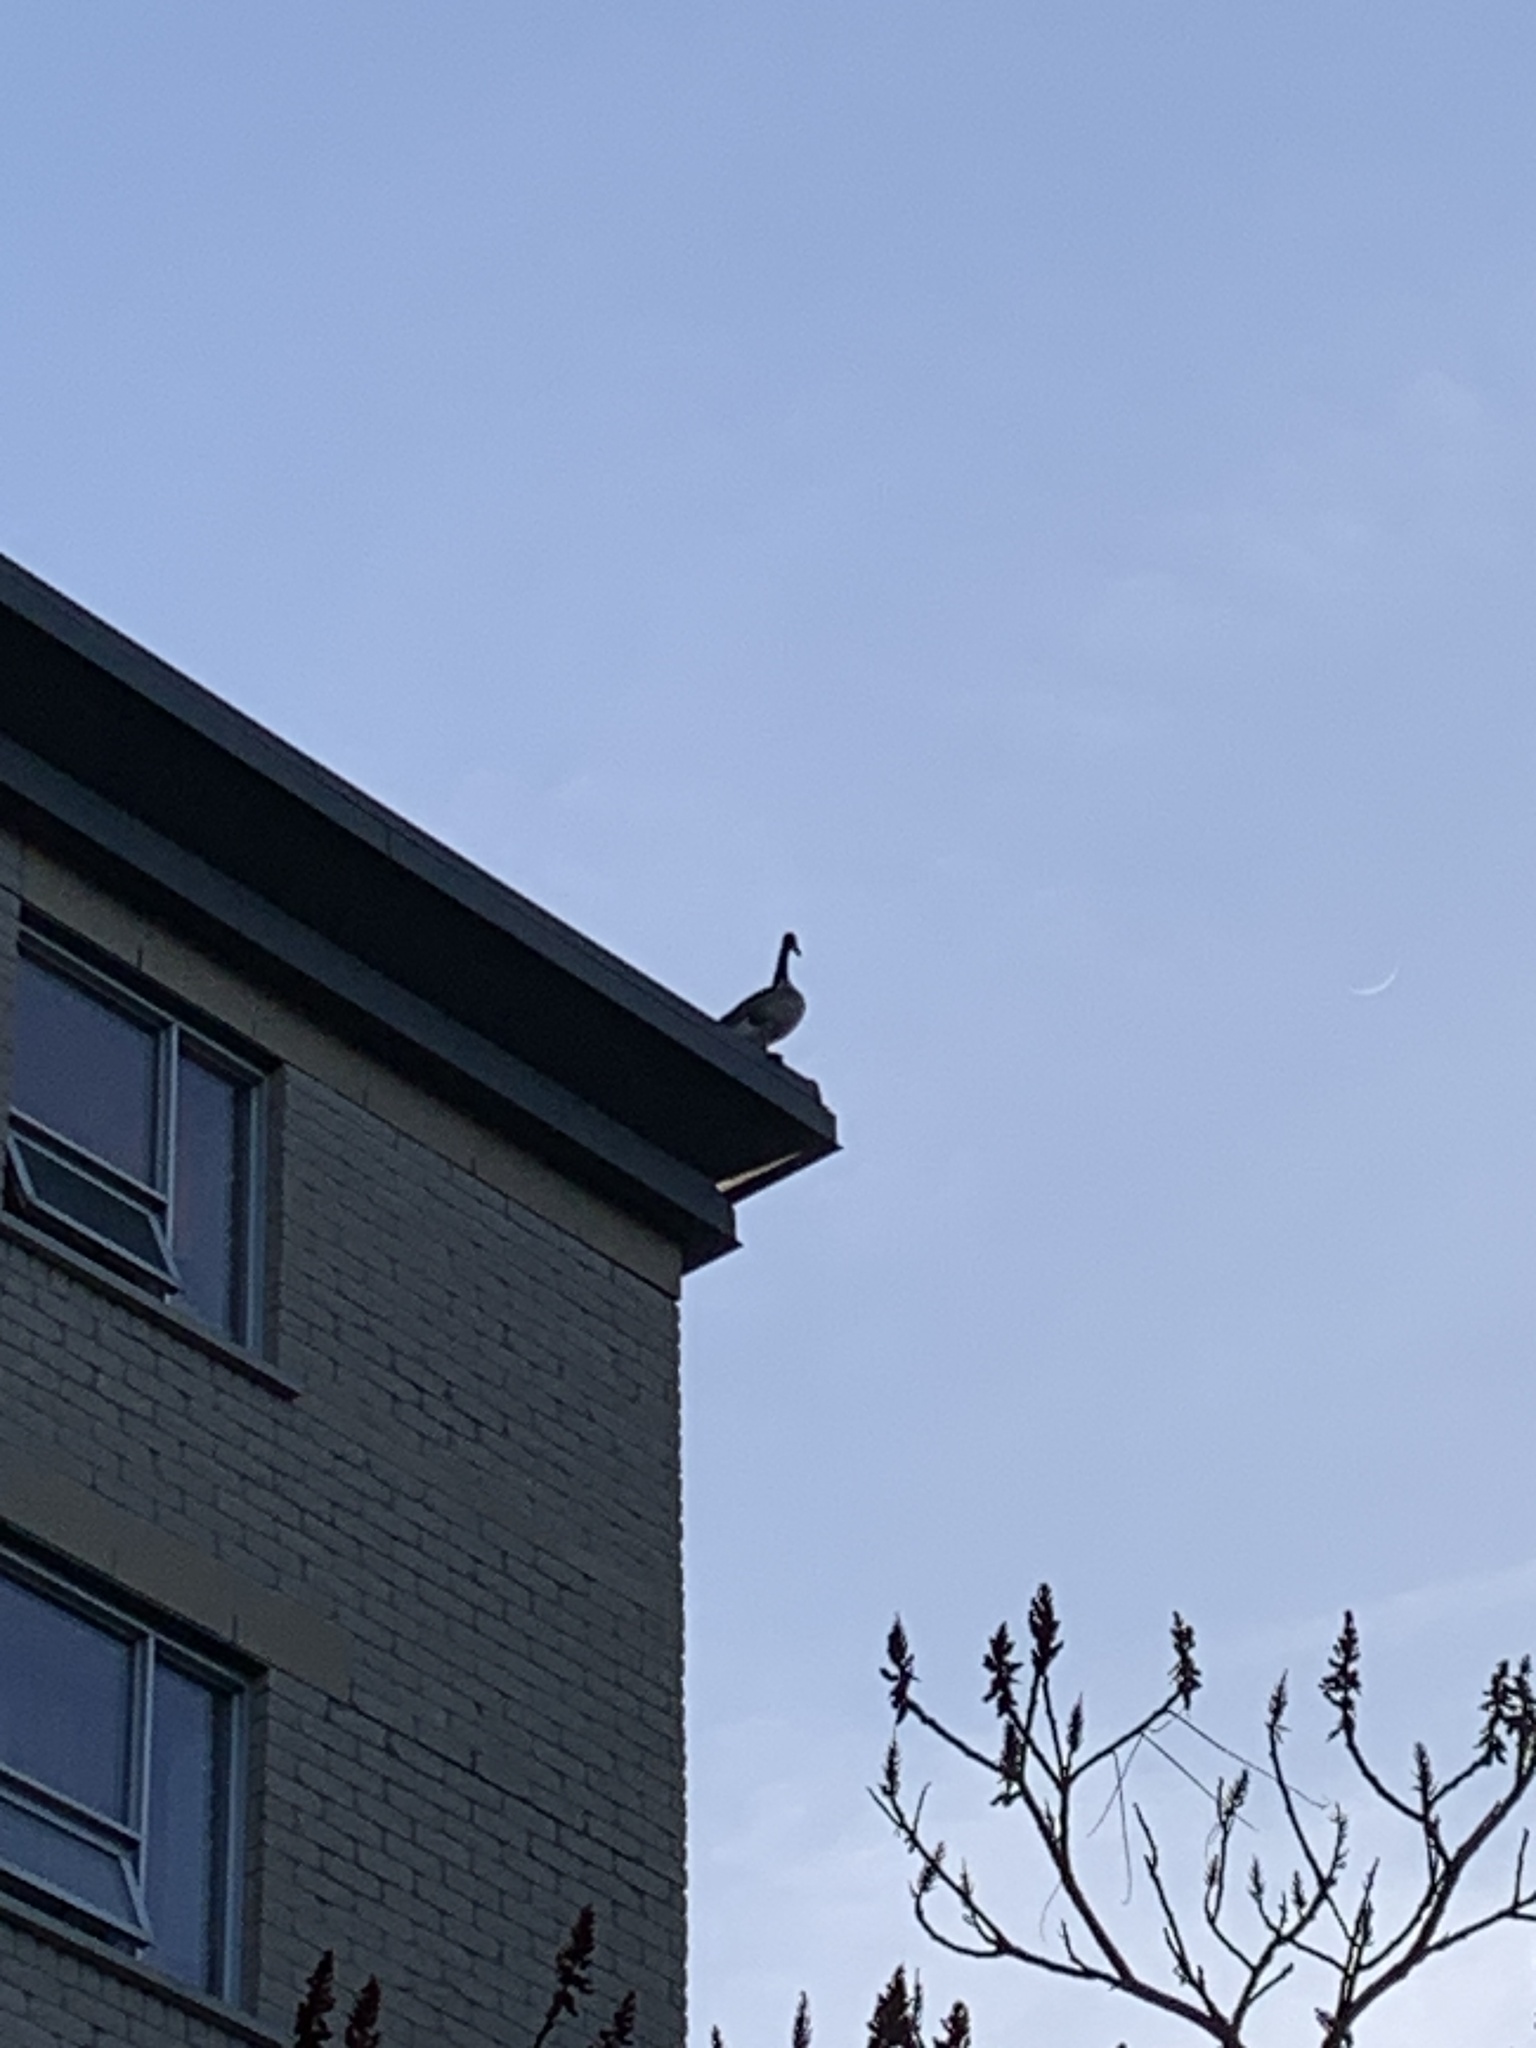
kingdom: Animalia
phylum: Chordata
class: Aves
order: Anseriformes
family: Anatidae
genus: Branta
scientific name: Branta canadensis
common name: Canada goose
